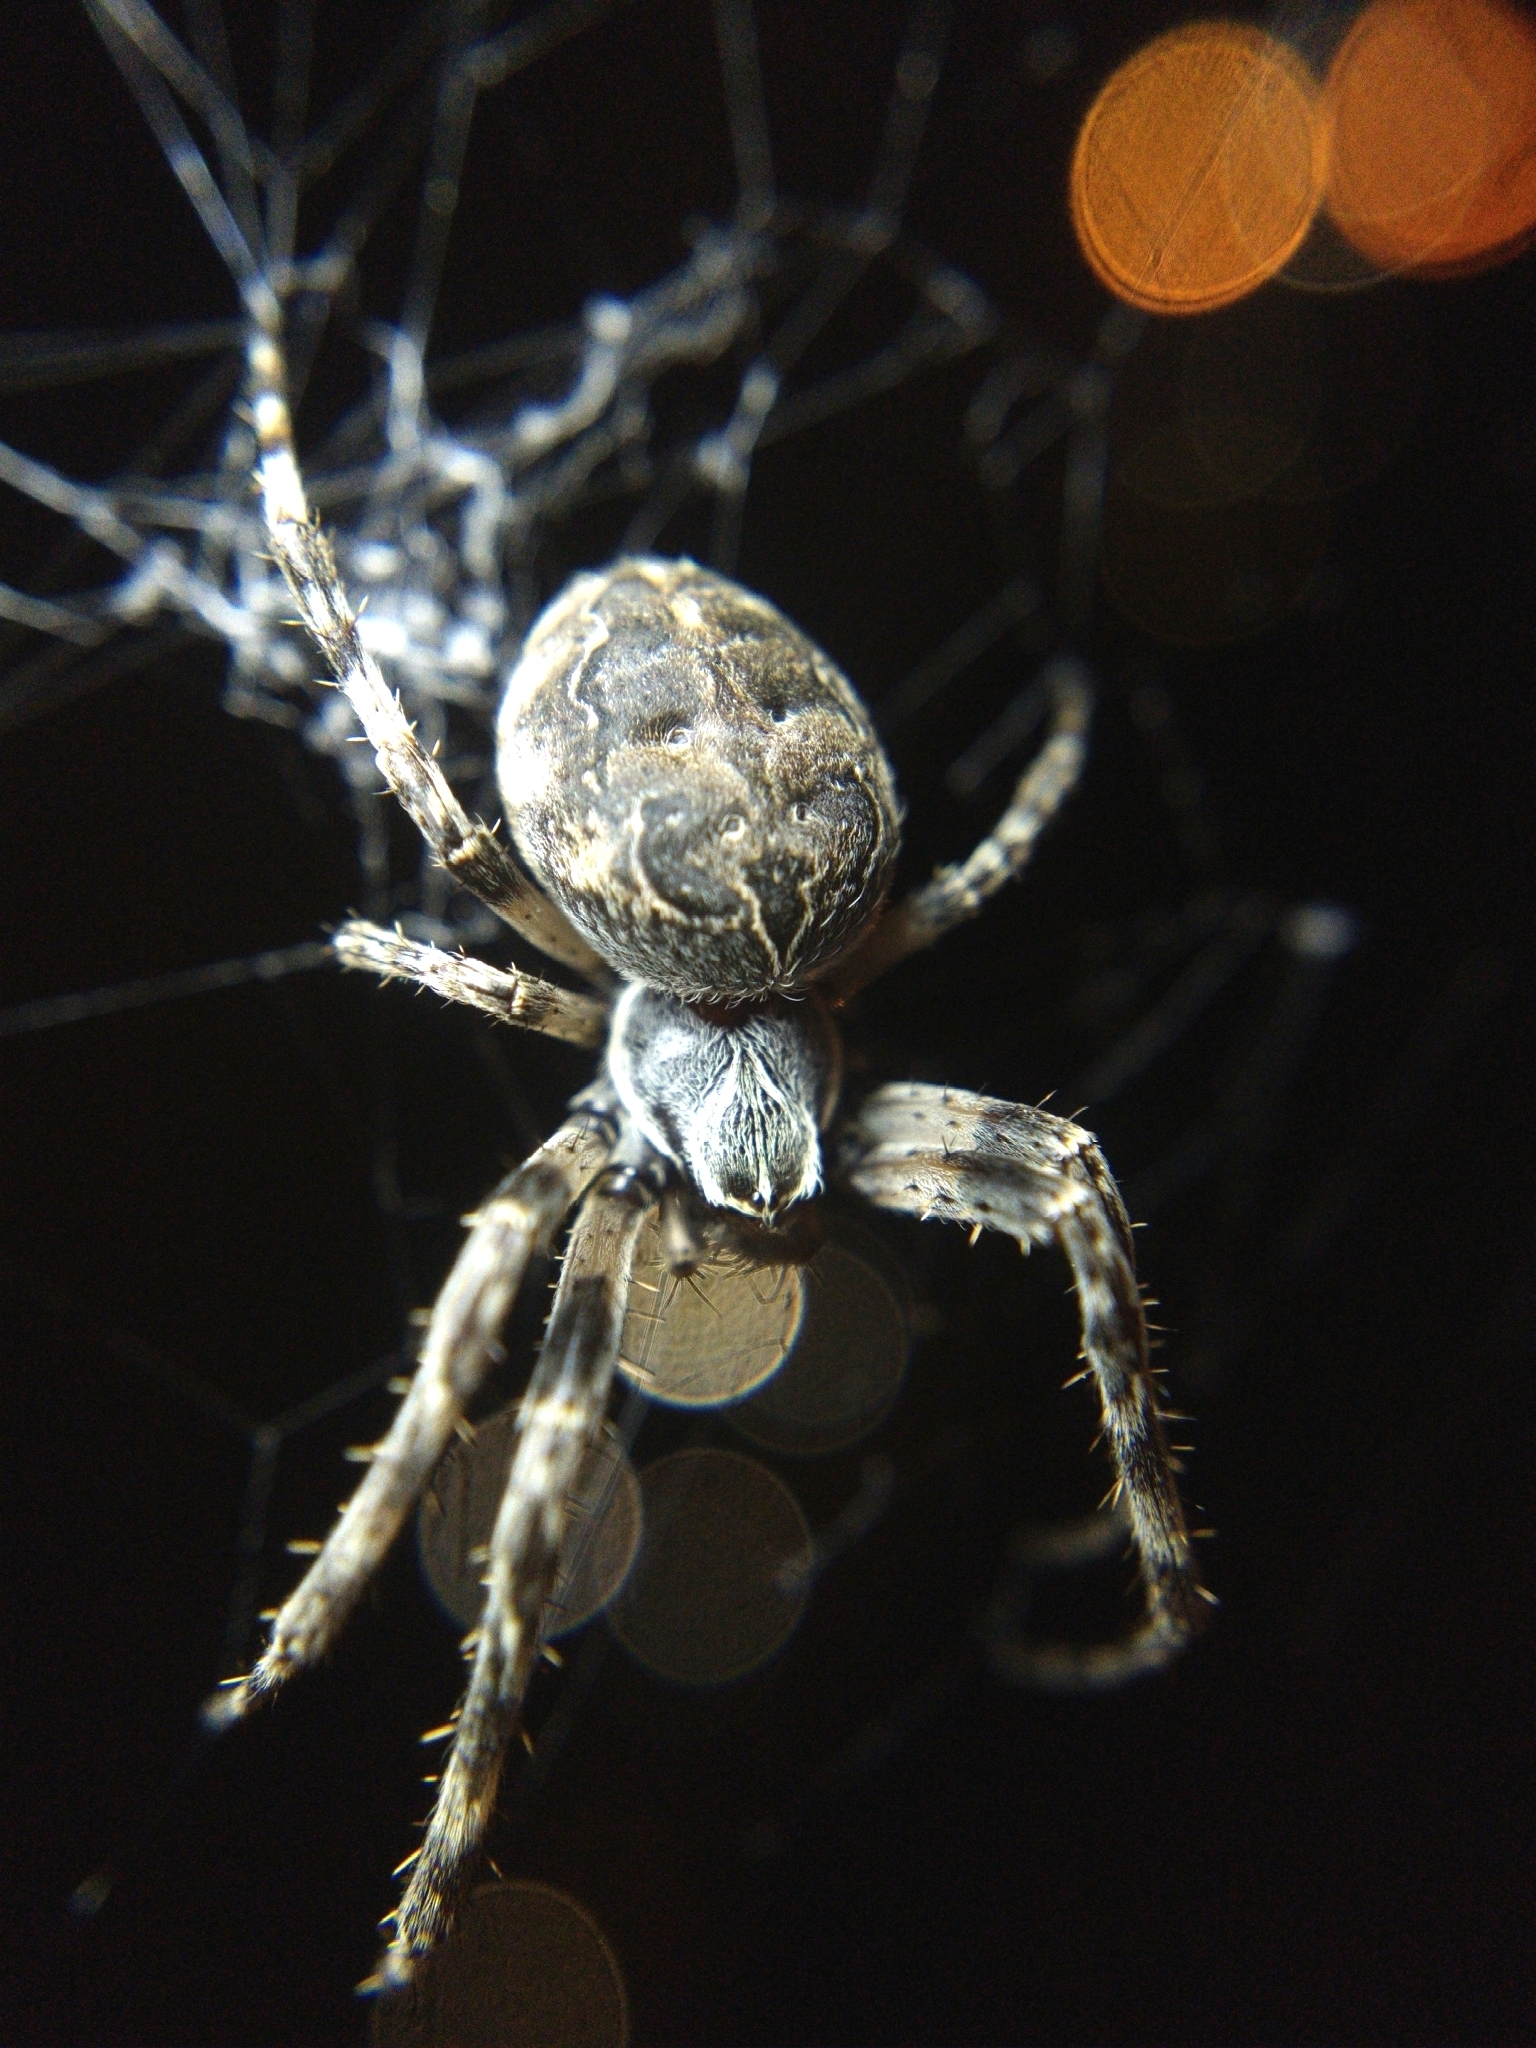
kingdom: Animalia
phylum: Arthropoda
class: Arachnida
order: Araneae
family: Araneidae
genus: Larinioides
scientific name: Larinioides sclopetarius
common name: Bridge orbweaver
